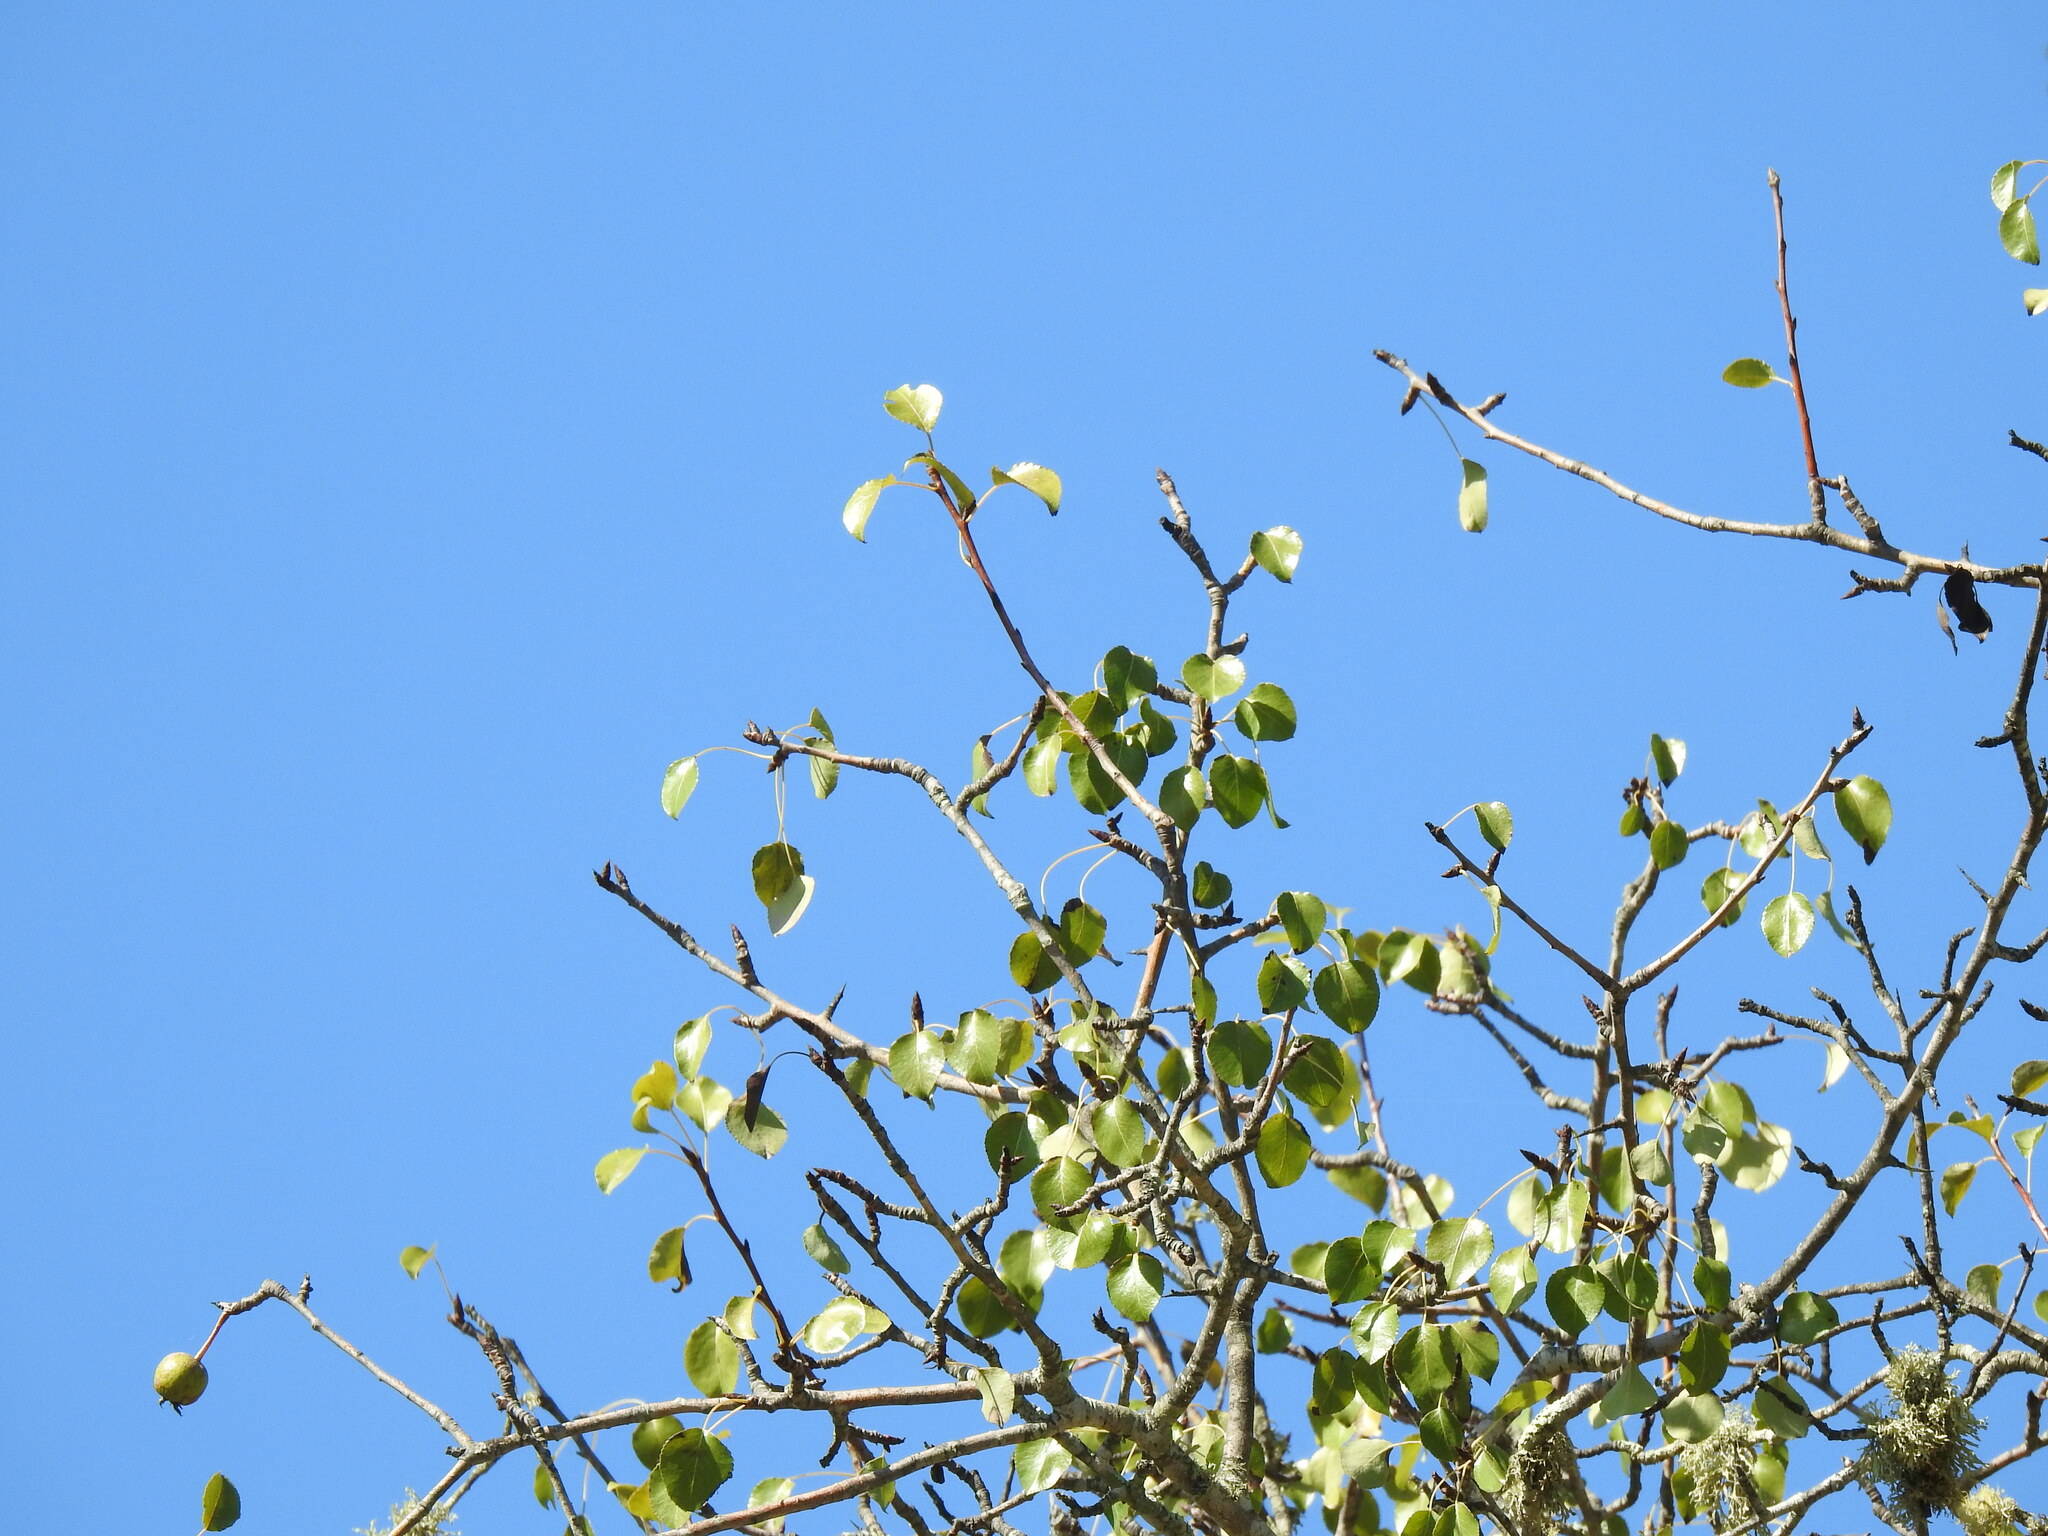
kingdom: Plantae
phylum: Tracheophyta
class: Magnoliopsida
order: Rosales
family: Rosaceae
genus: Pyrus
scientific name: Pyrus bourgaeana
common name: Iberian pear
